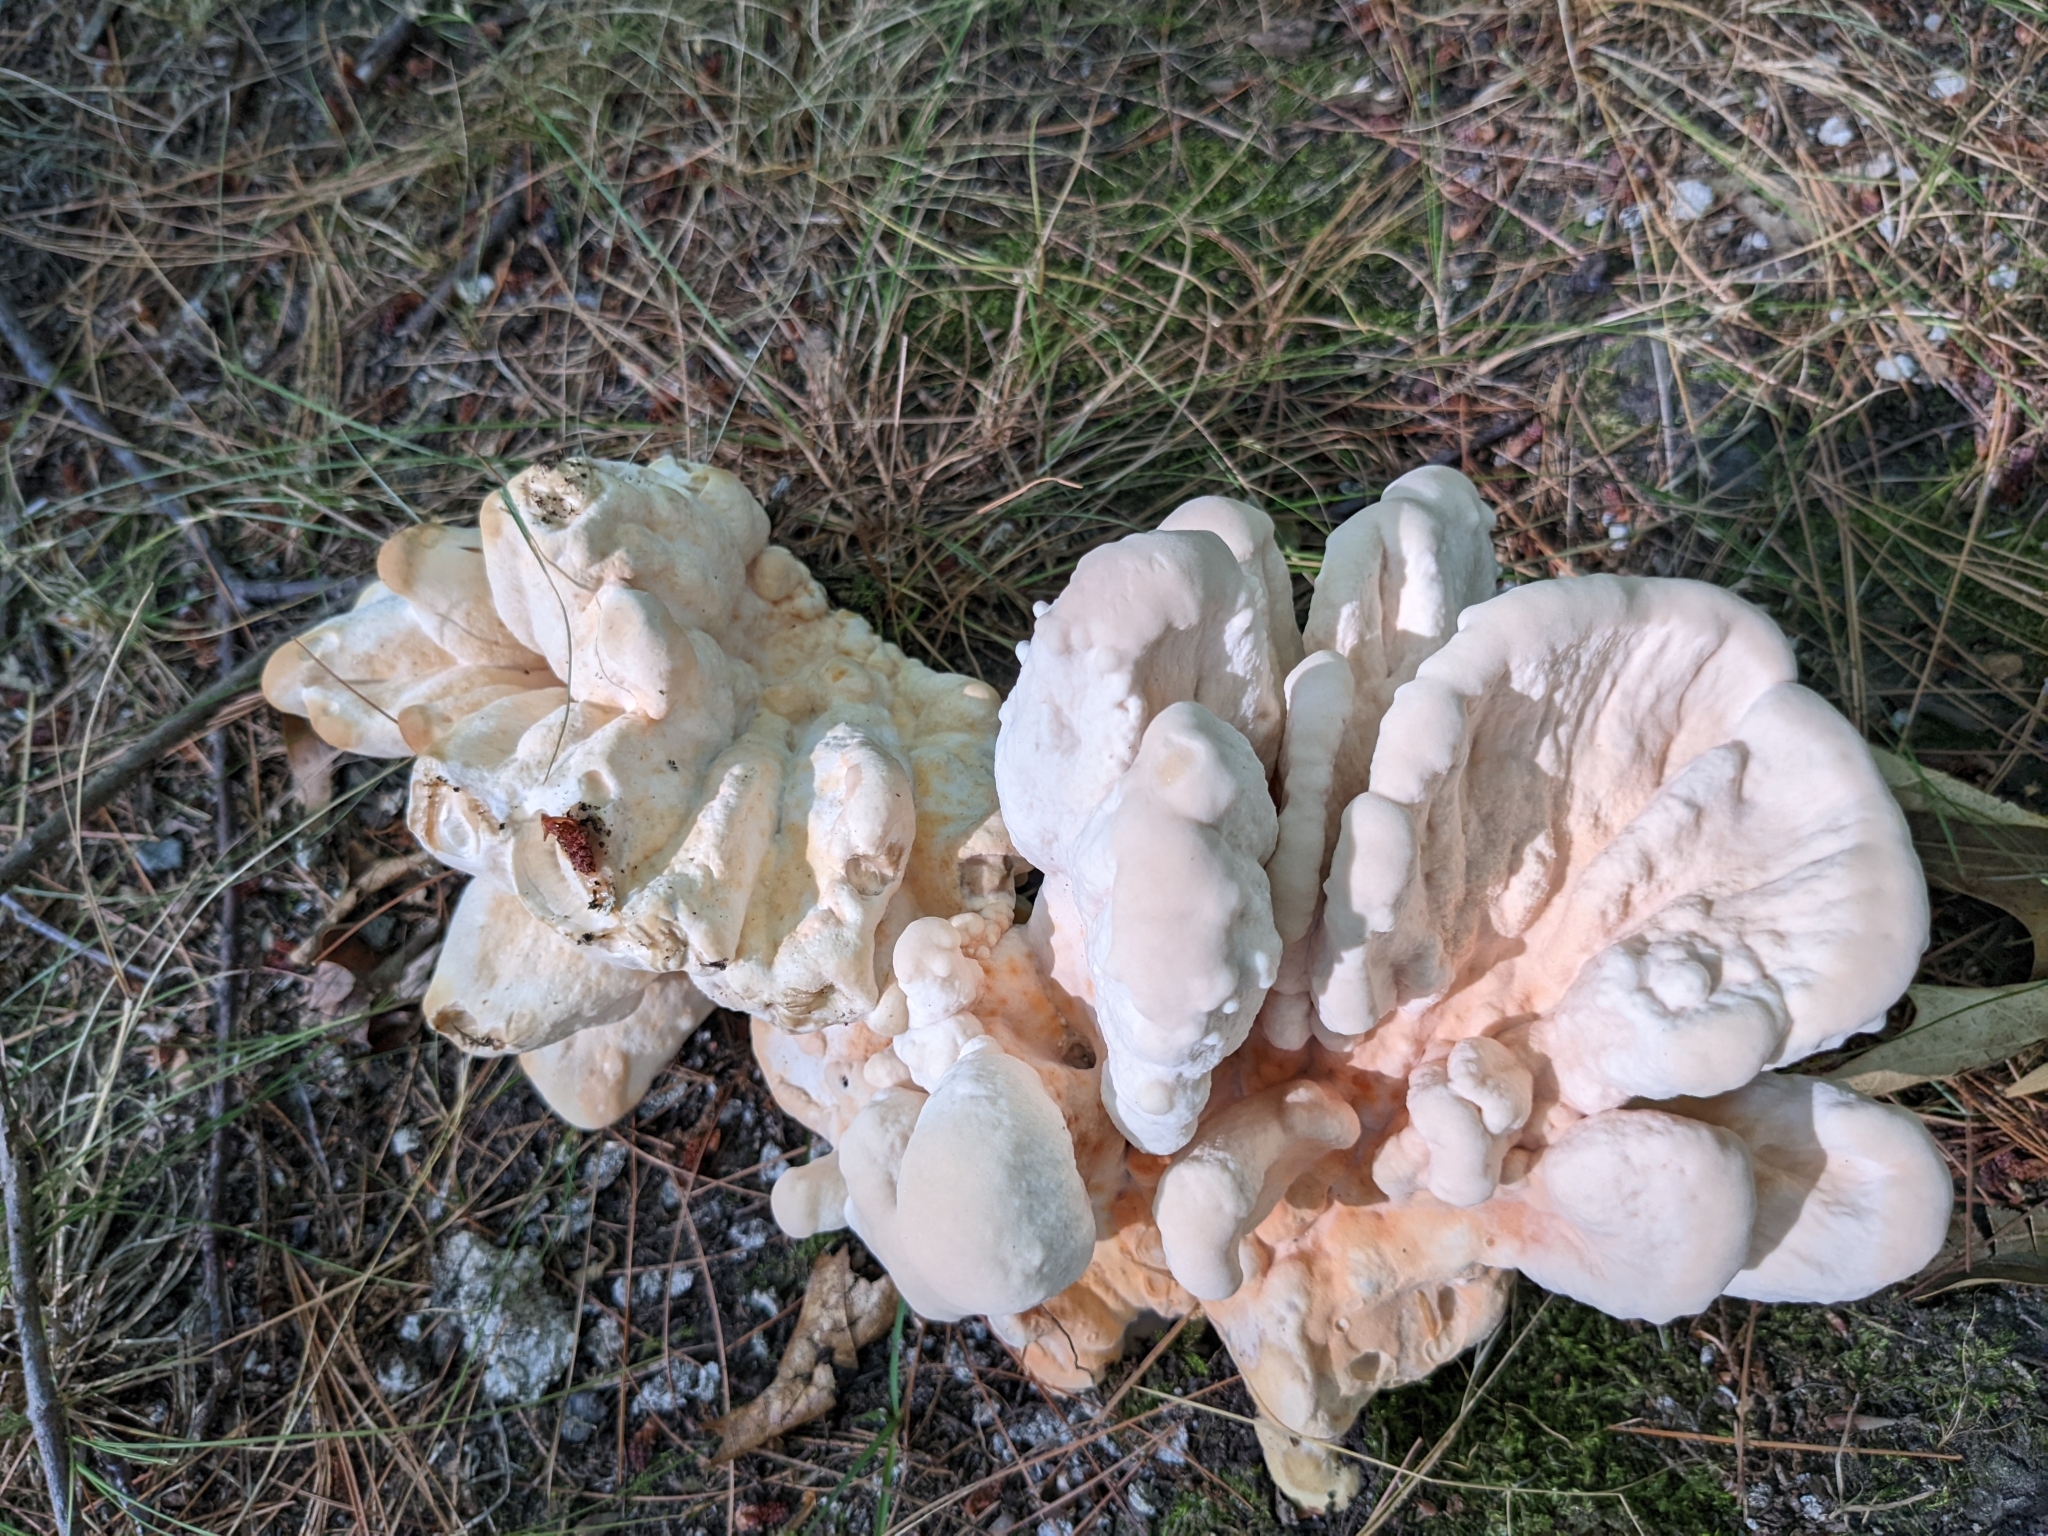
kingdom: Fungi
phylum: Basidiomycota
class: Agaricomycetes
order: Polyporales
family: Laetiporaceae
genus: Laetiporus
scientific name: Laetiporus sulphureus
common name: Chicken of the woods
